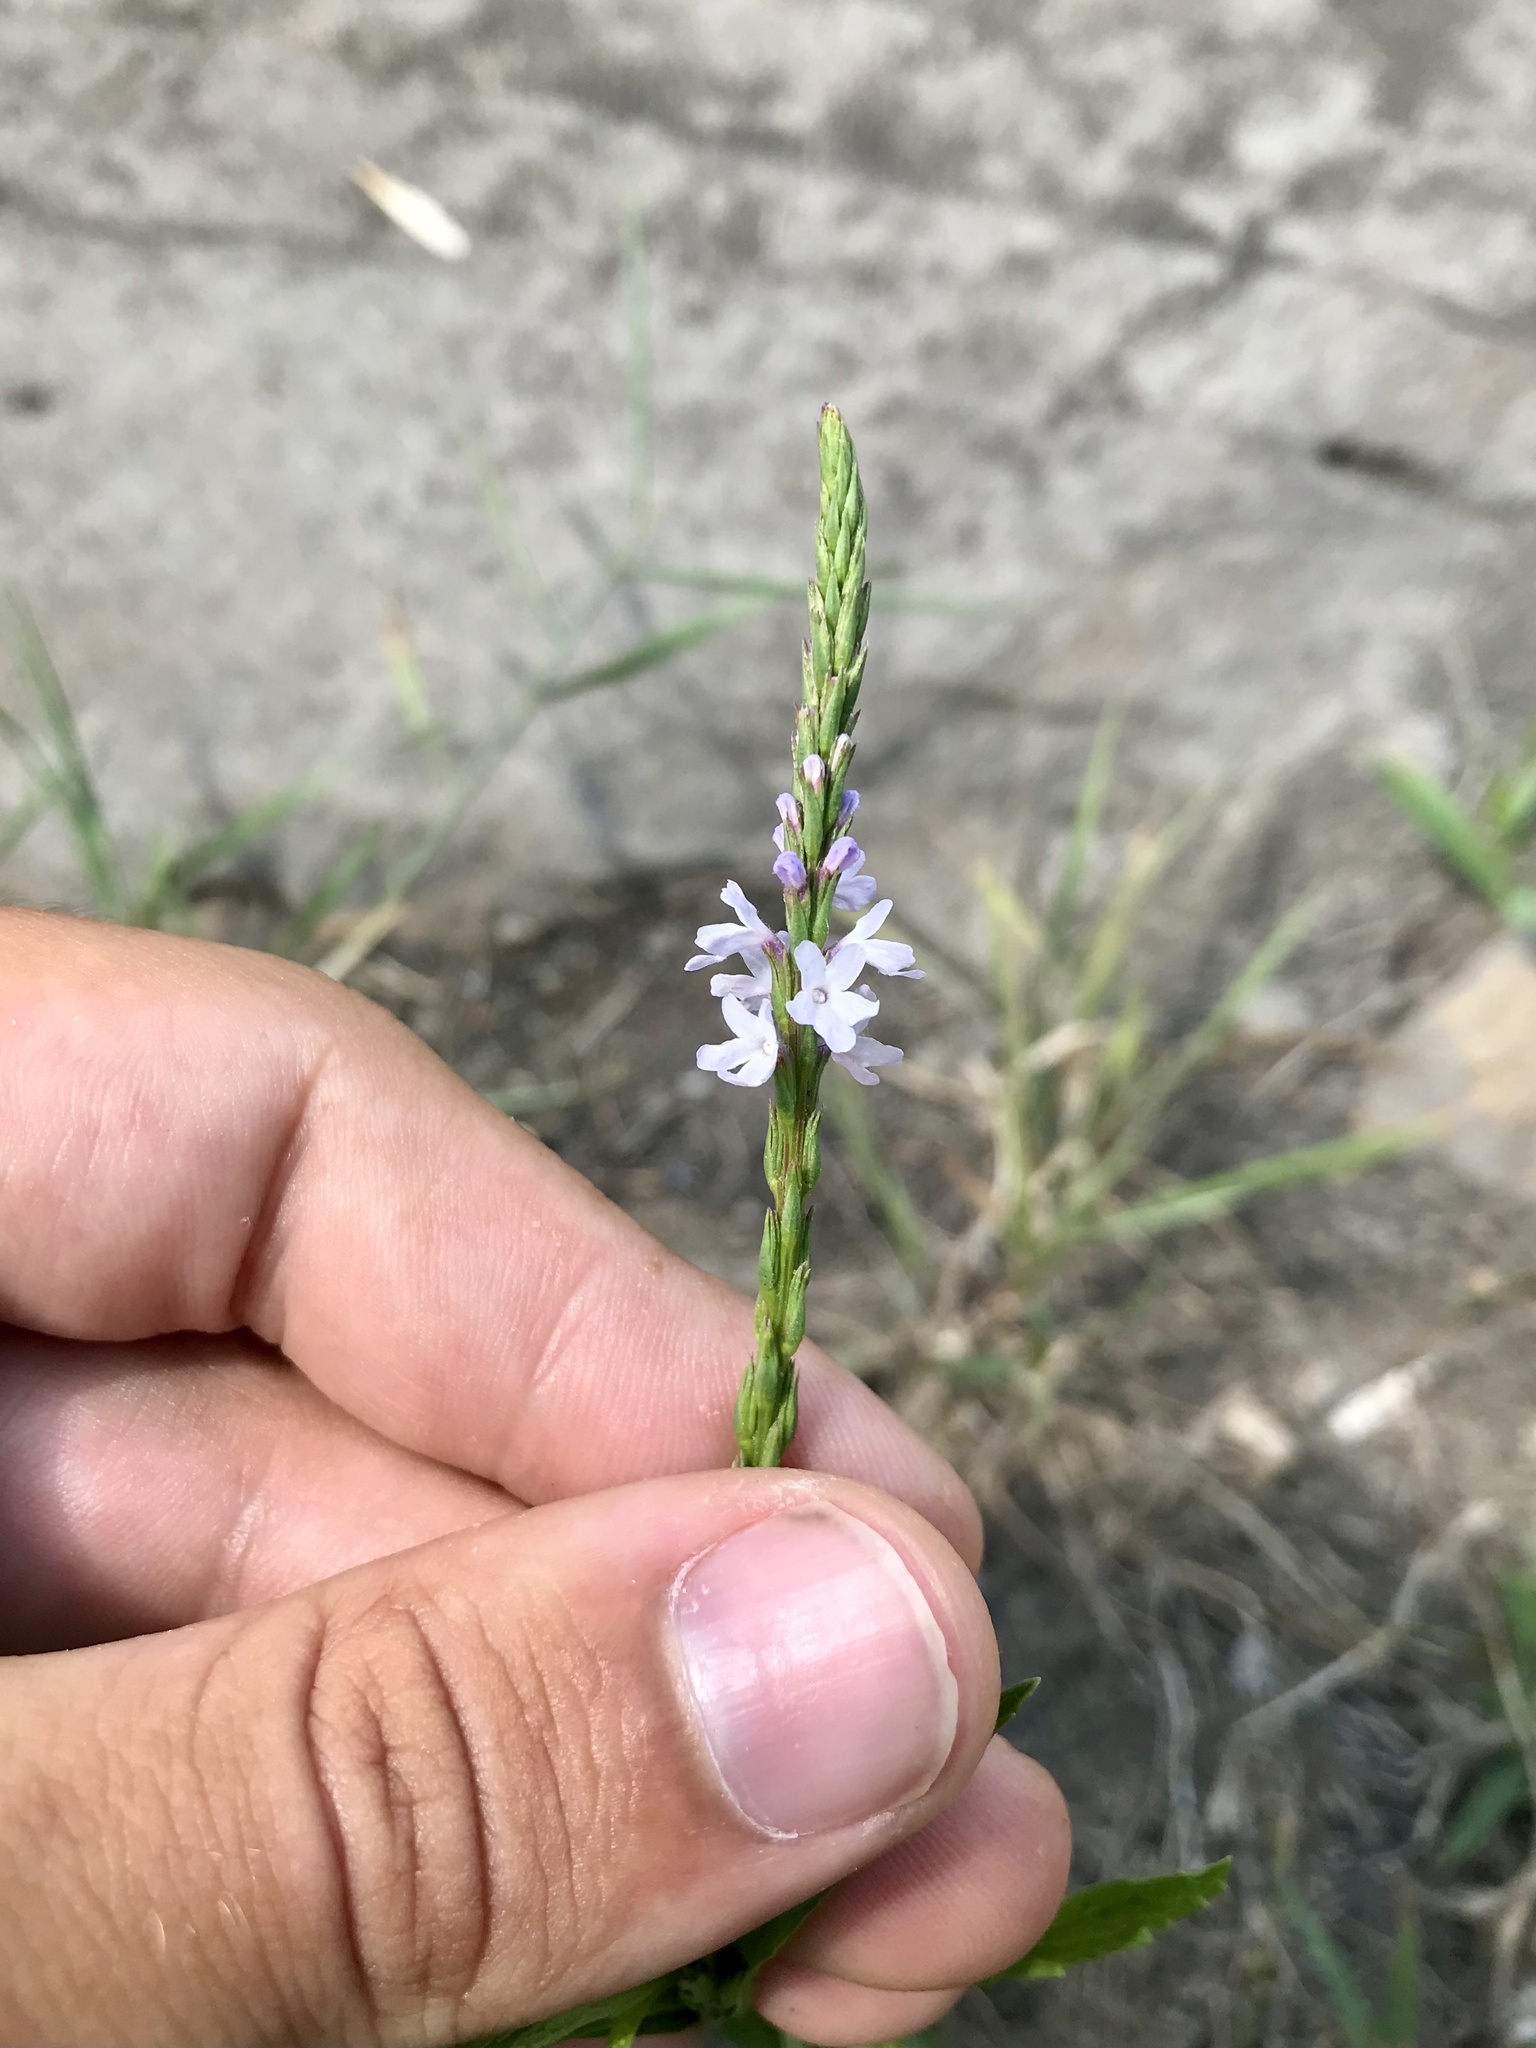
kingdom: Plantae
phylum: Tracheophyta
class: Magnoliopsida
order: Lamiales
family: Verbenaceae
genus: Verbena
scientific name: Verbena simplex
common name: Narrow-leaf vervain
